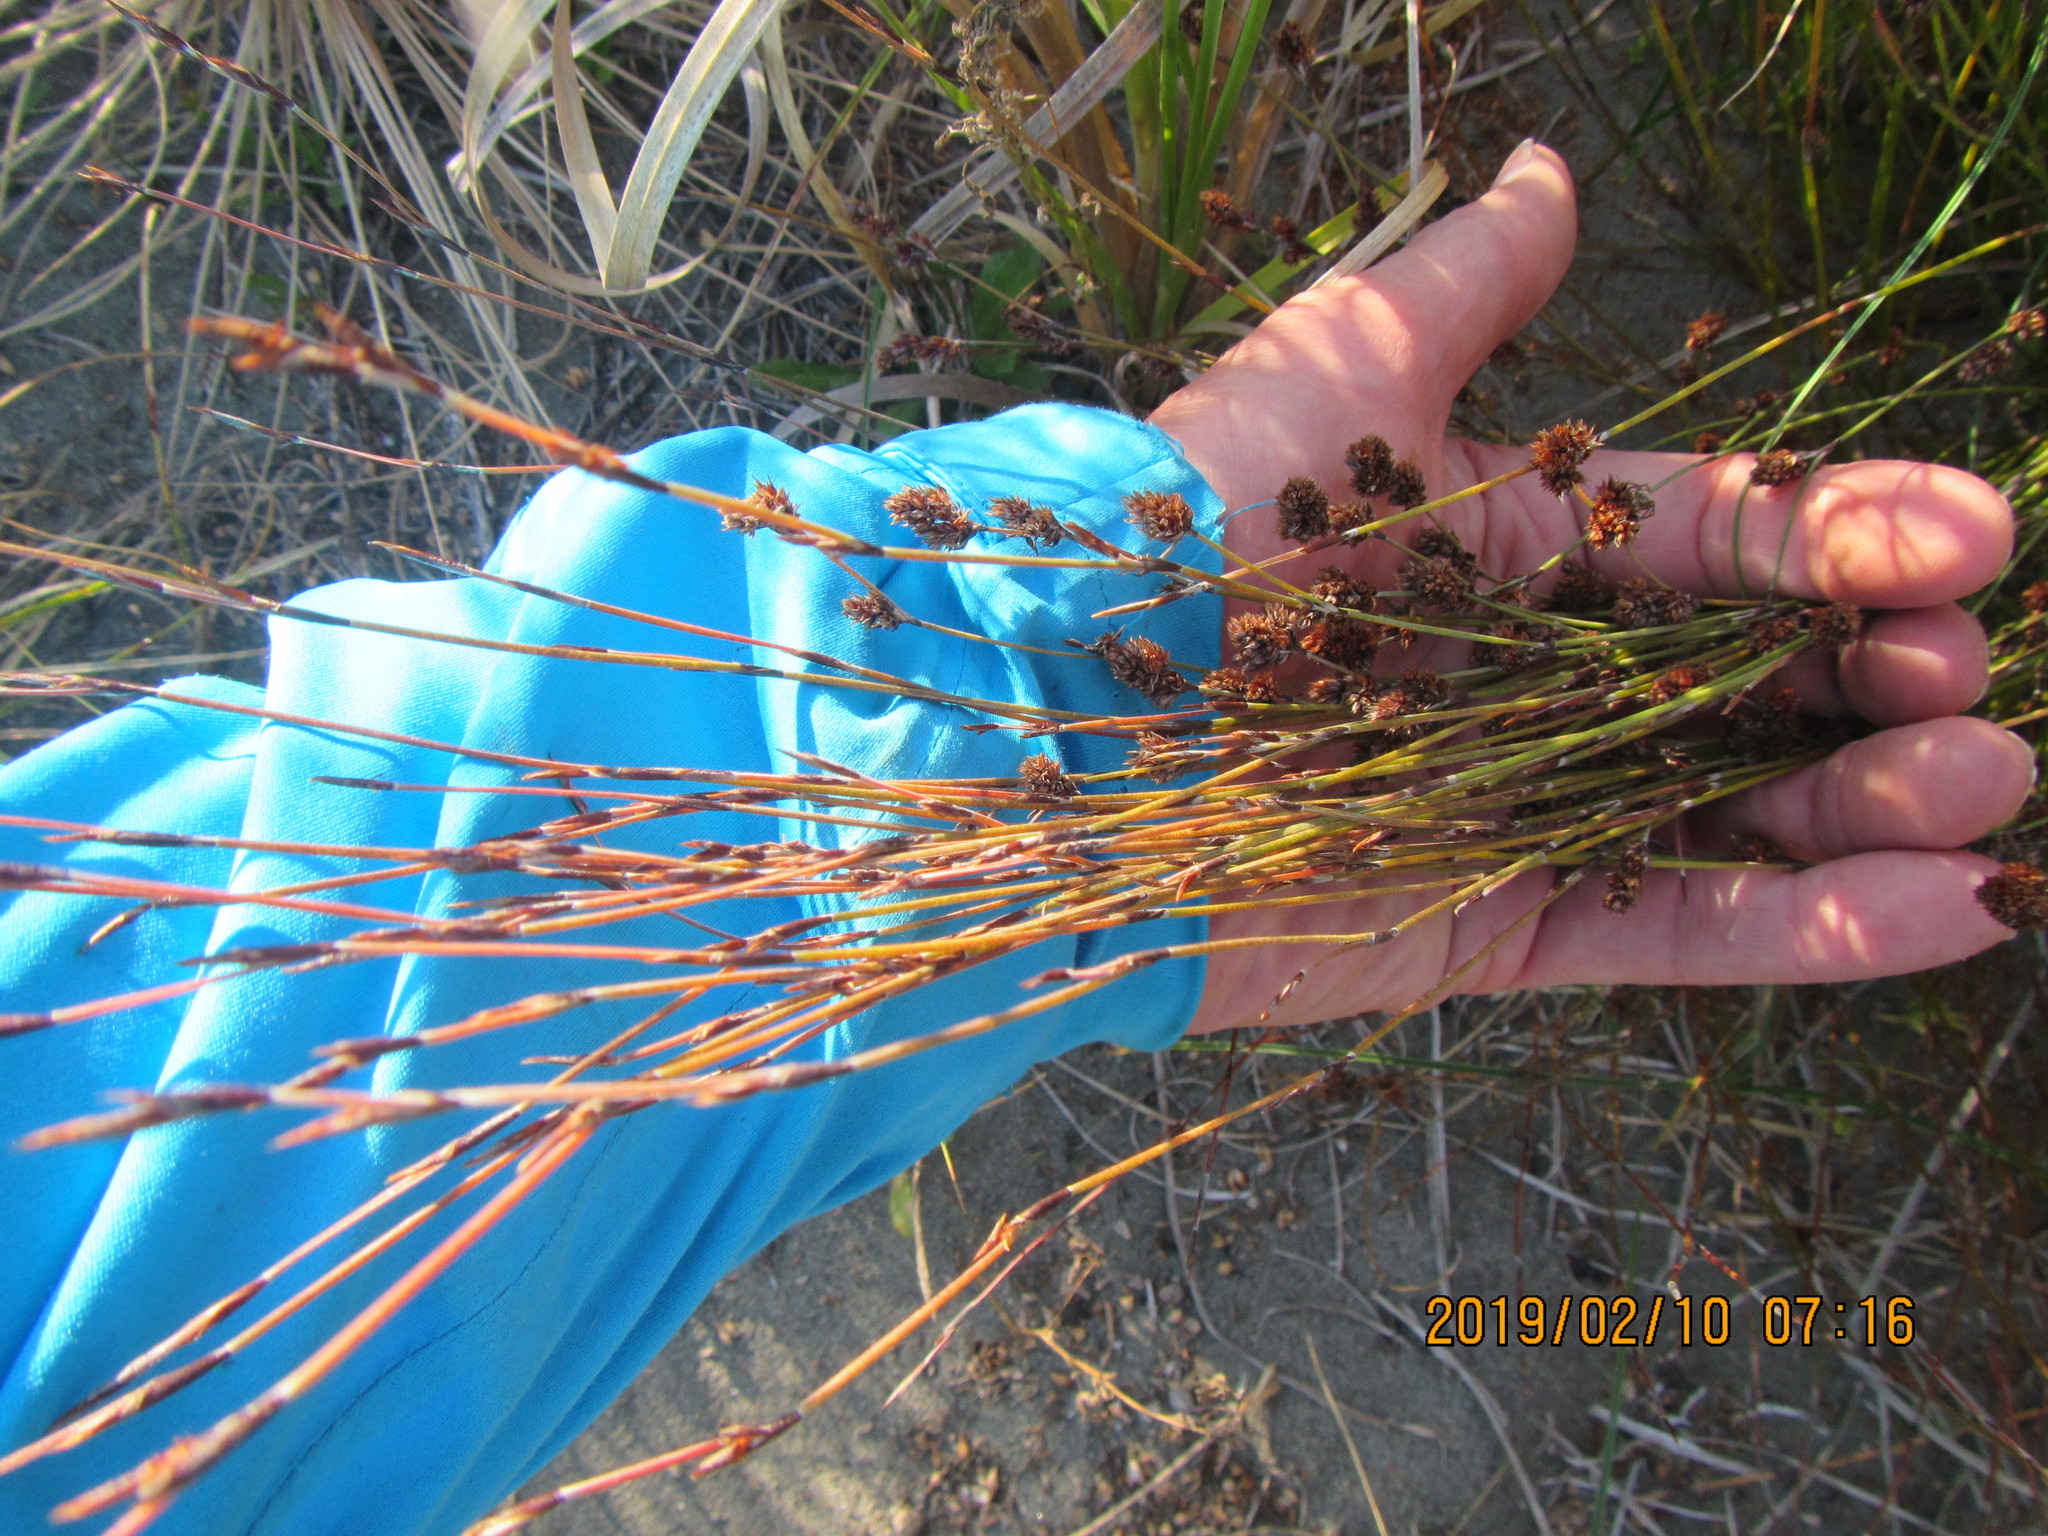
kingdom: Plantae
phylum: Tracheophyta
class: Liliopsida
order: Poales
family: Restionaceae
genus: Apodasmia
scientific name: Apodasmia similis
